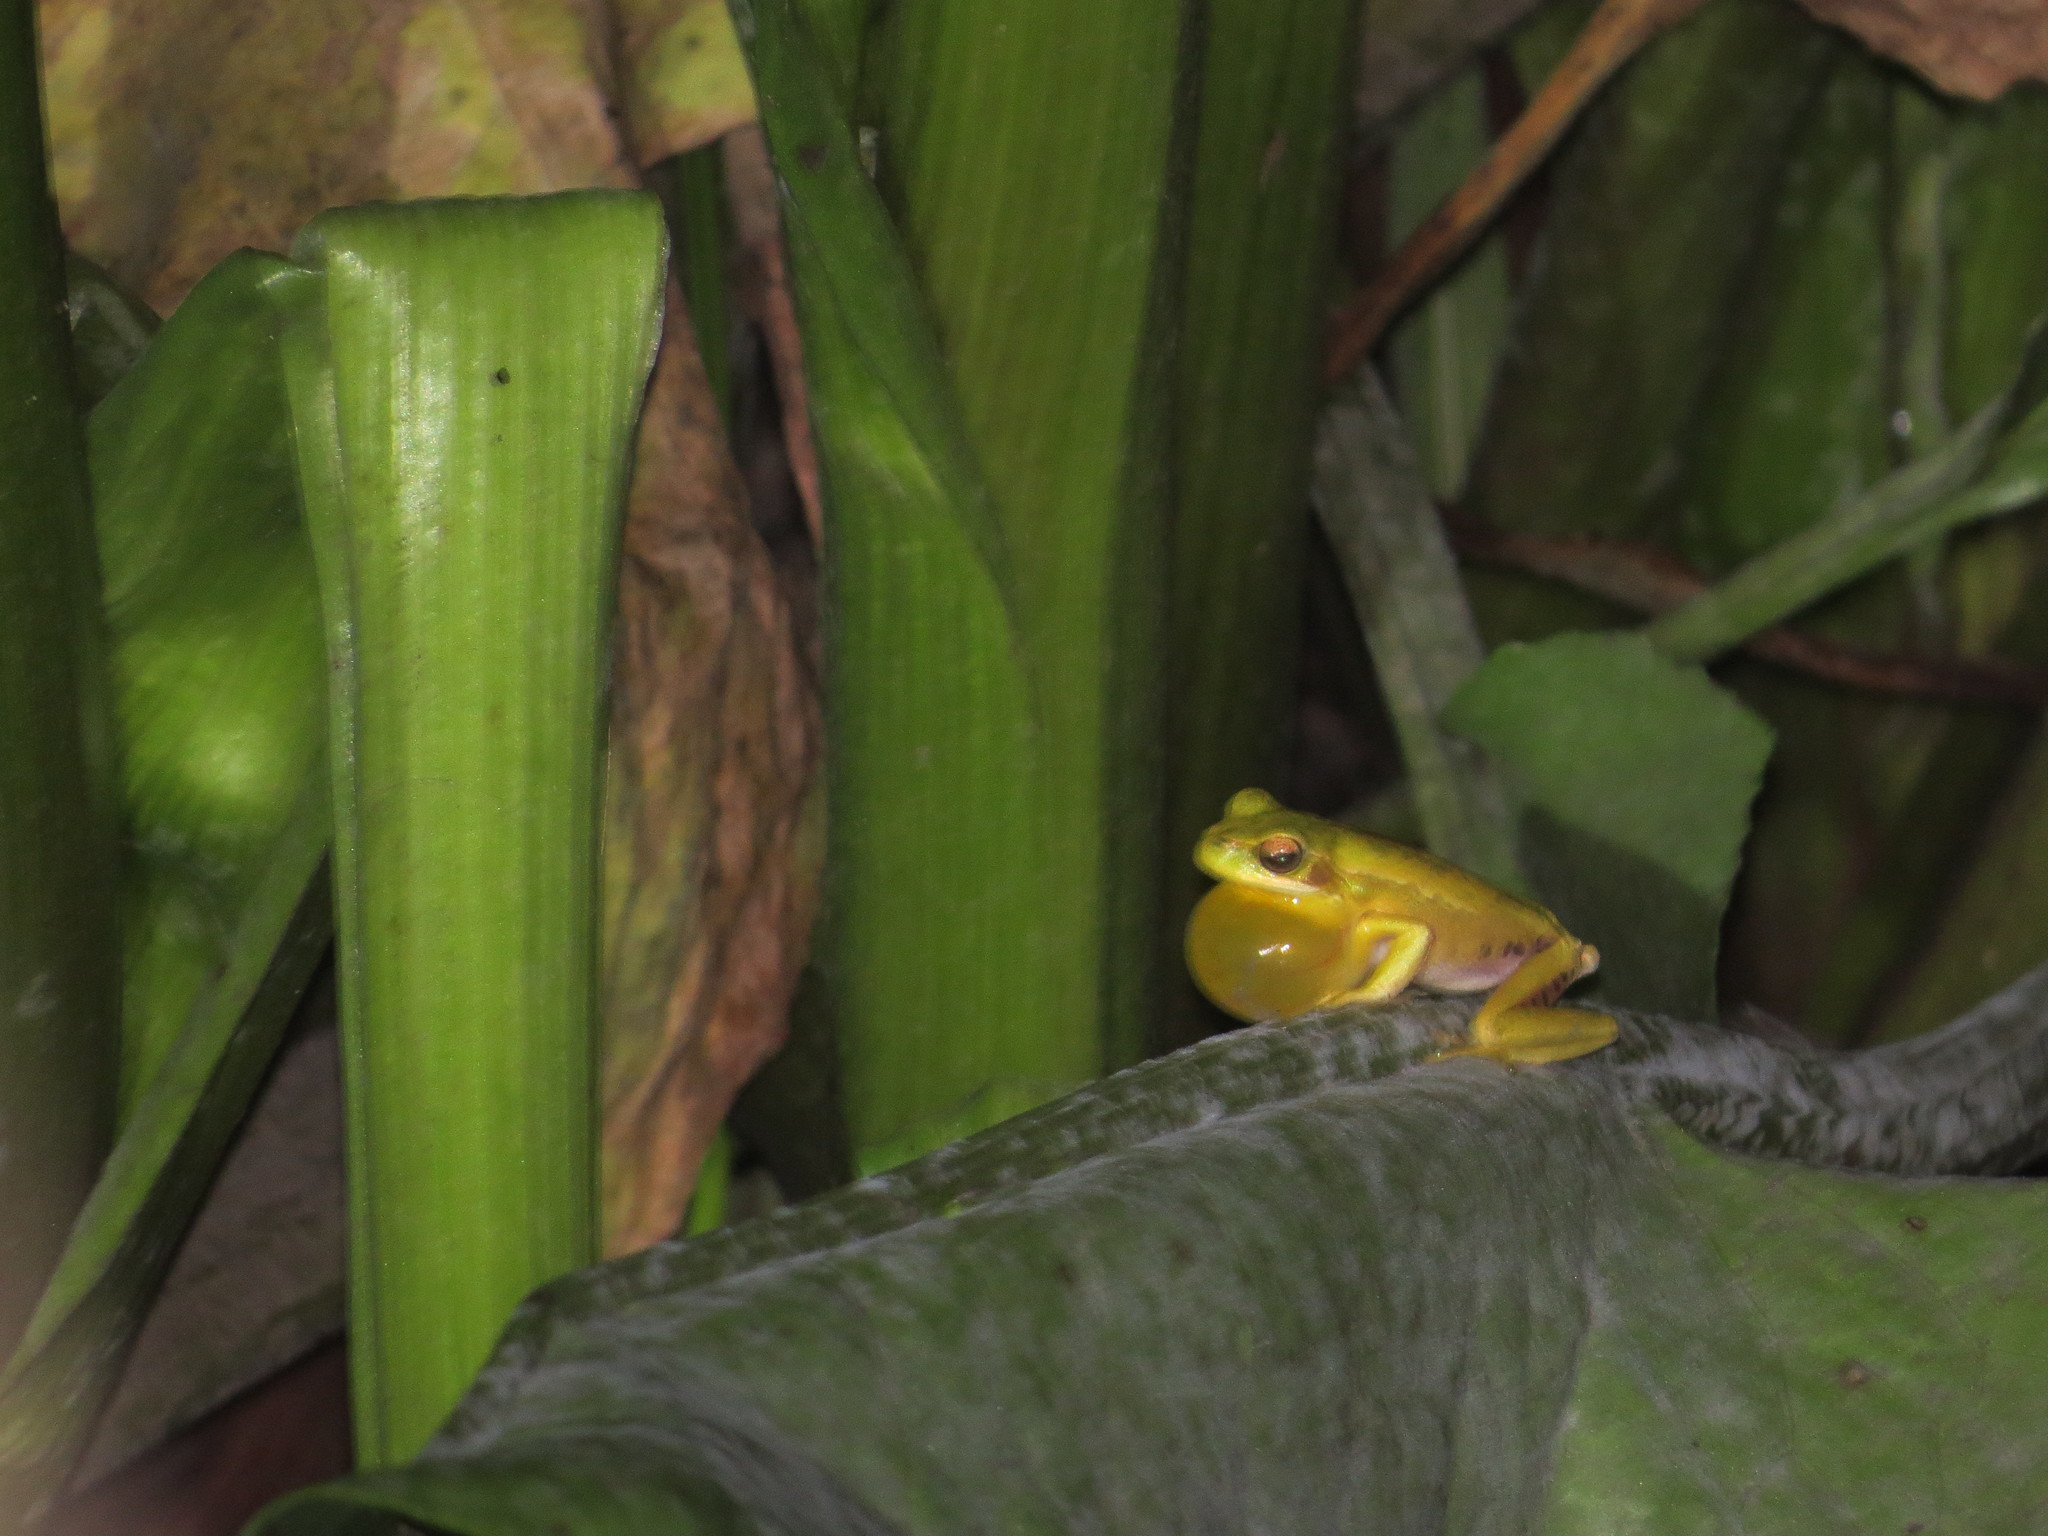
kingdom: Animalia
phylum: Chordata
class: Amphibia
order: Anura
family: Hylidae
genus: Boana
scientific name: Boana pulchella
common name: Montevideo treefrog
